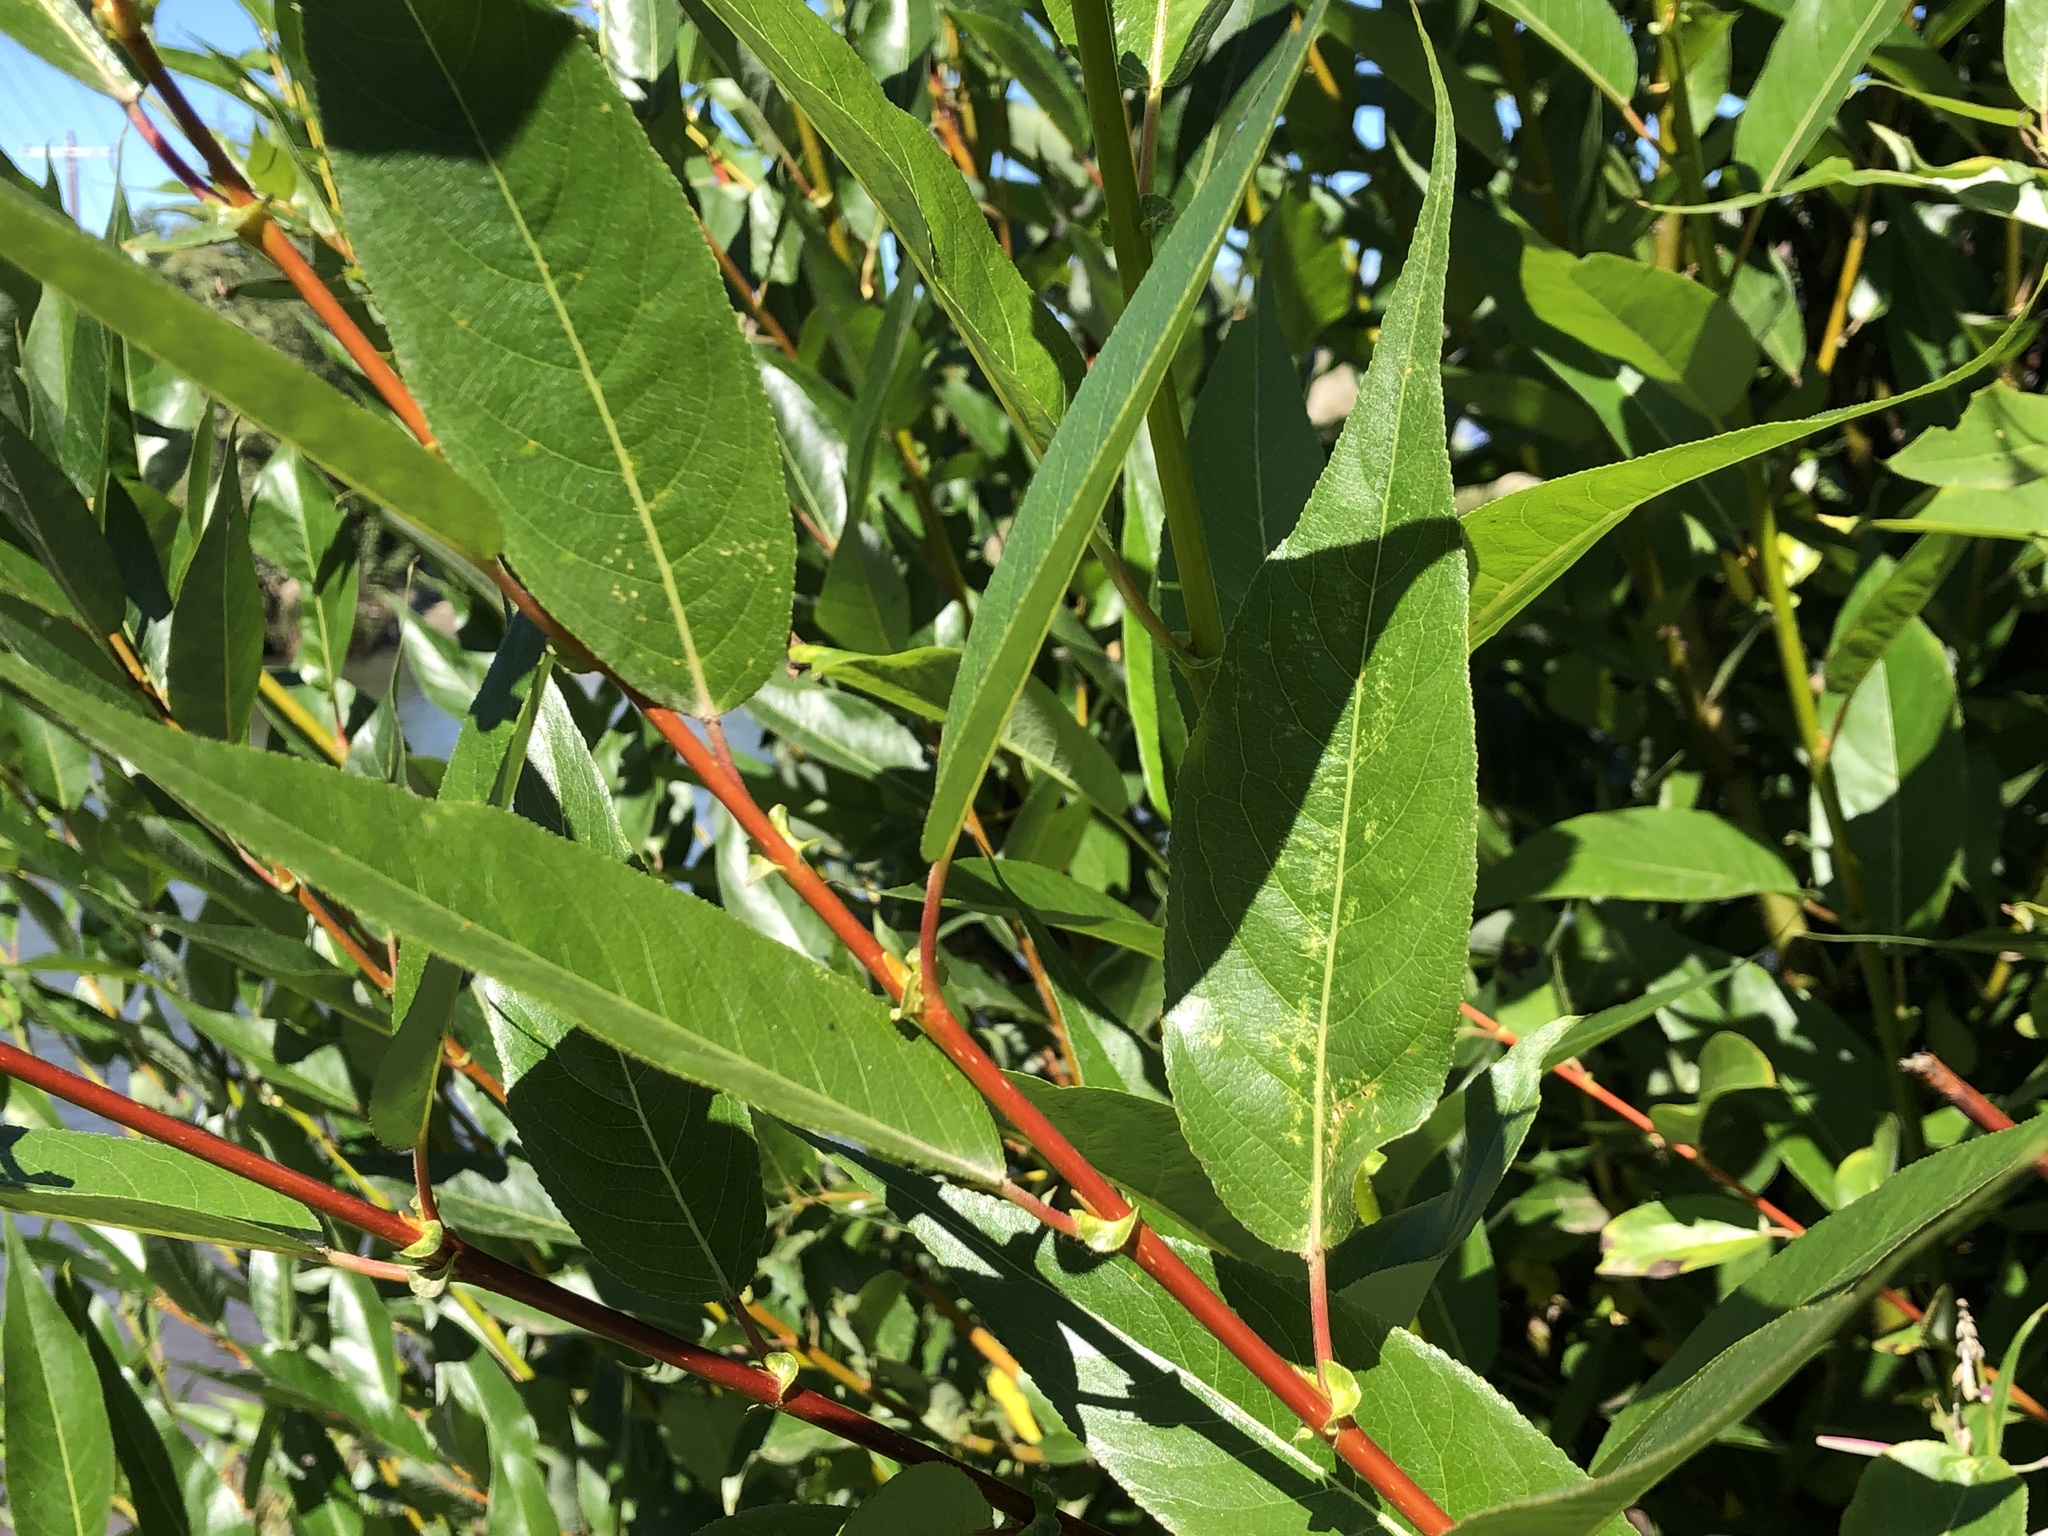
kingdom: Plantae
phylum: Tracheophyta
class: Magnoliopsida
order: Malpighiales
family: Salicaceae
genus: Salix
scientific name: Salix lucida
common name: Shining willow
